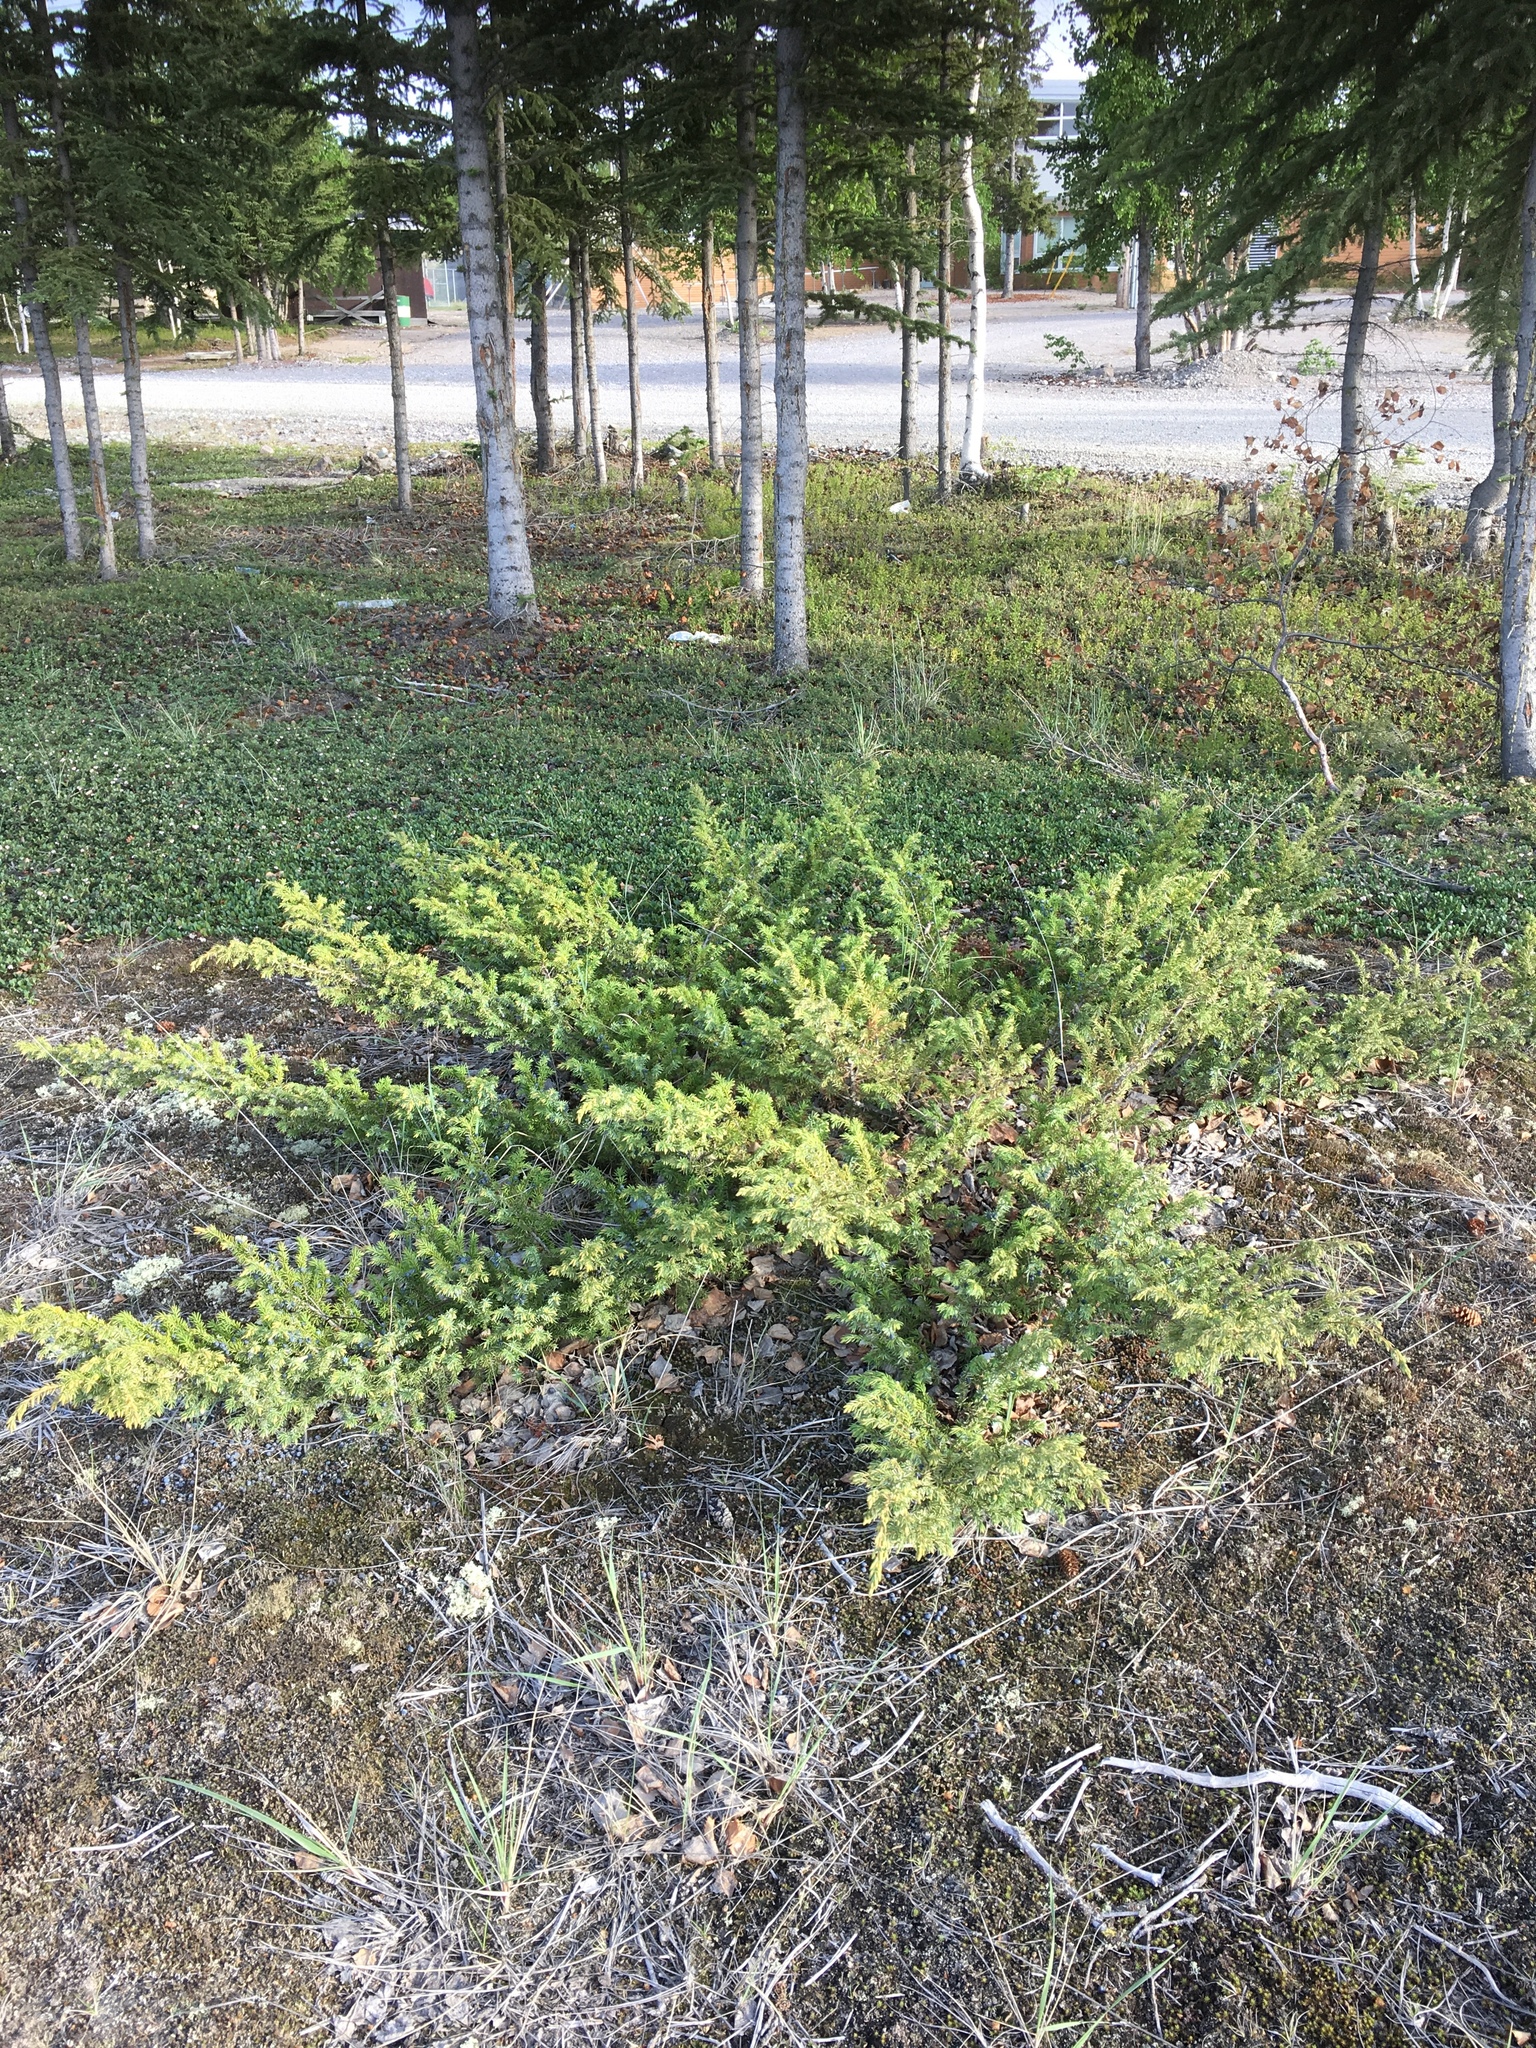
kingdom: Plantae
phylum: Tracheophyta
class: Pinopsida
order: Pinales
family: Cupressaceae
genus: Juniperus
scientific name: Juniperus communis
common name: Common juniper
